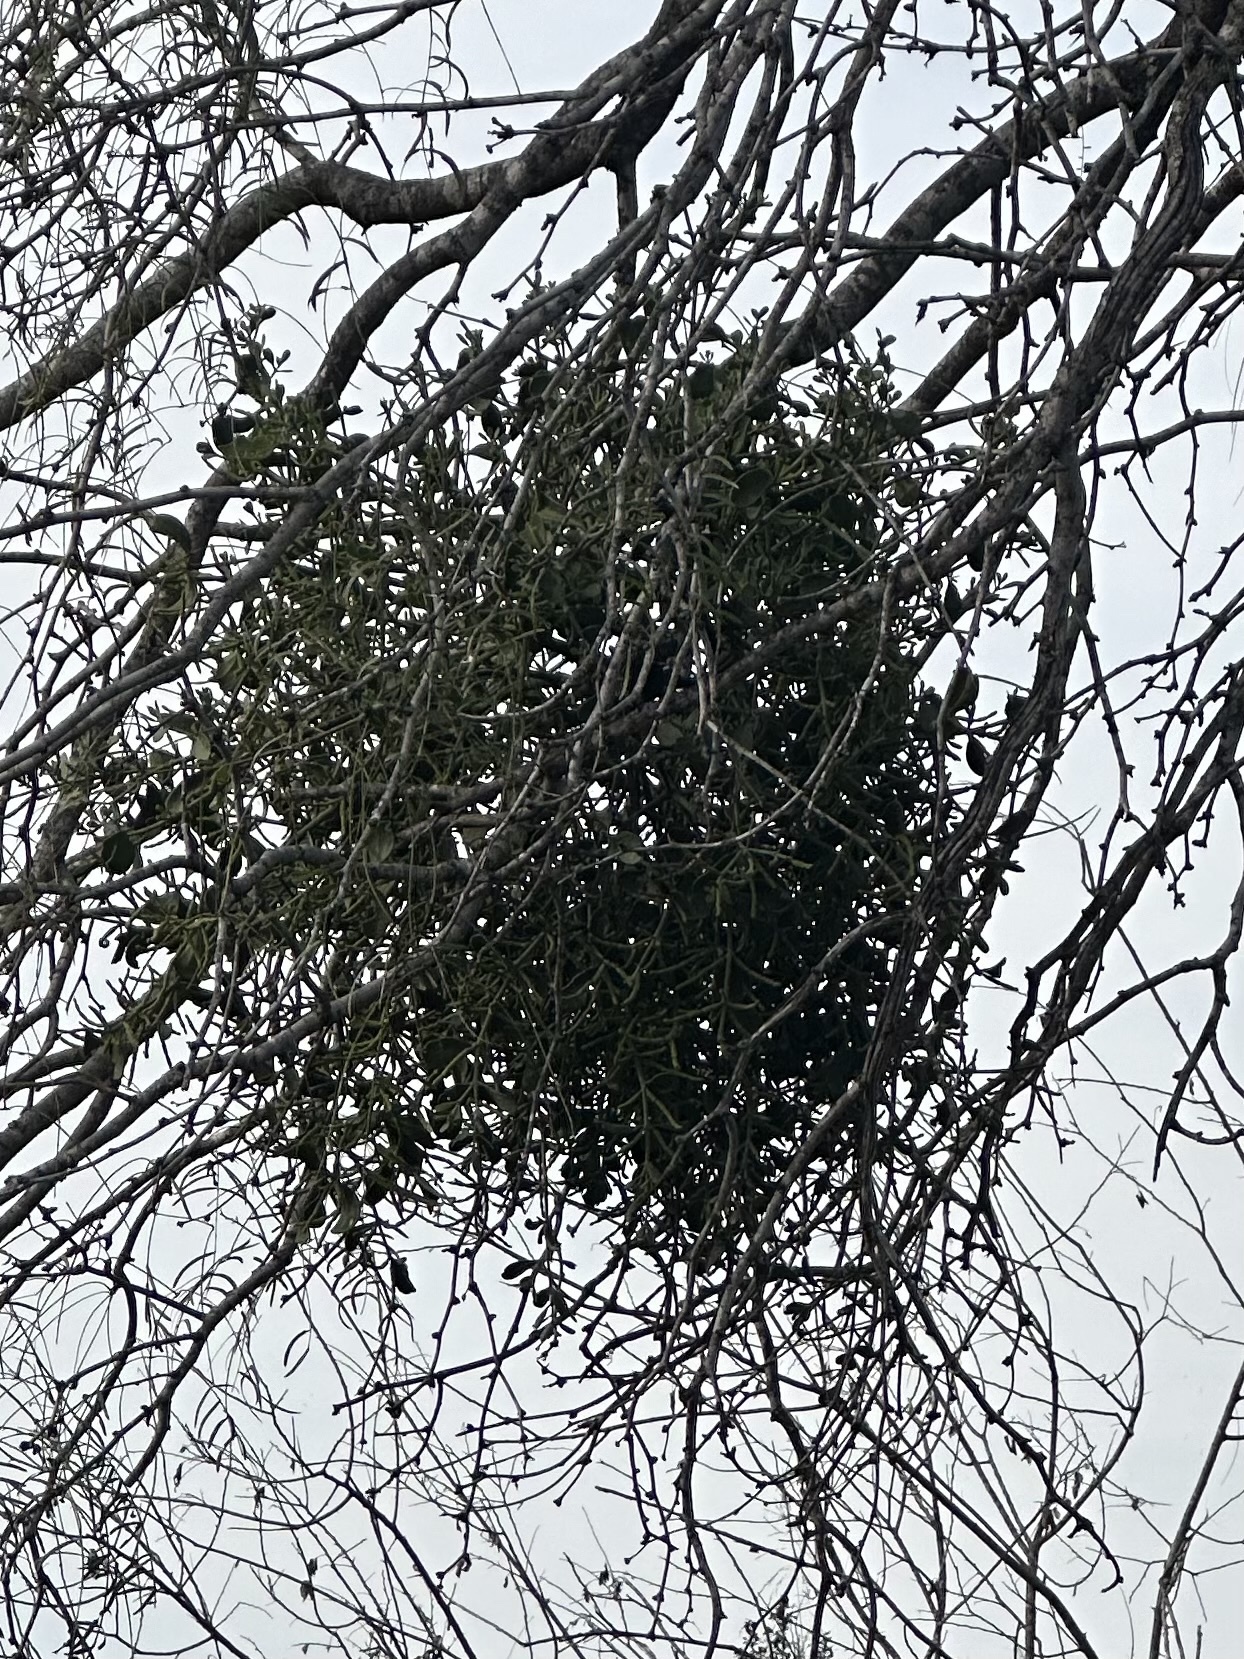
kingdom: Plantae
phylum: Tracheophyta
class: Magnoliopsida
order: Santalales
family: Viscaceae
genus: Phoradendron
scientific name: Phoradendron leucarpum
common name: Pacific mistletoe
